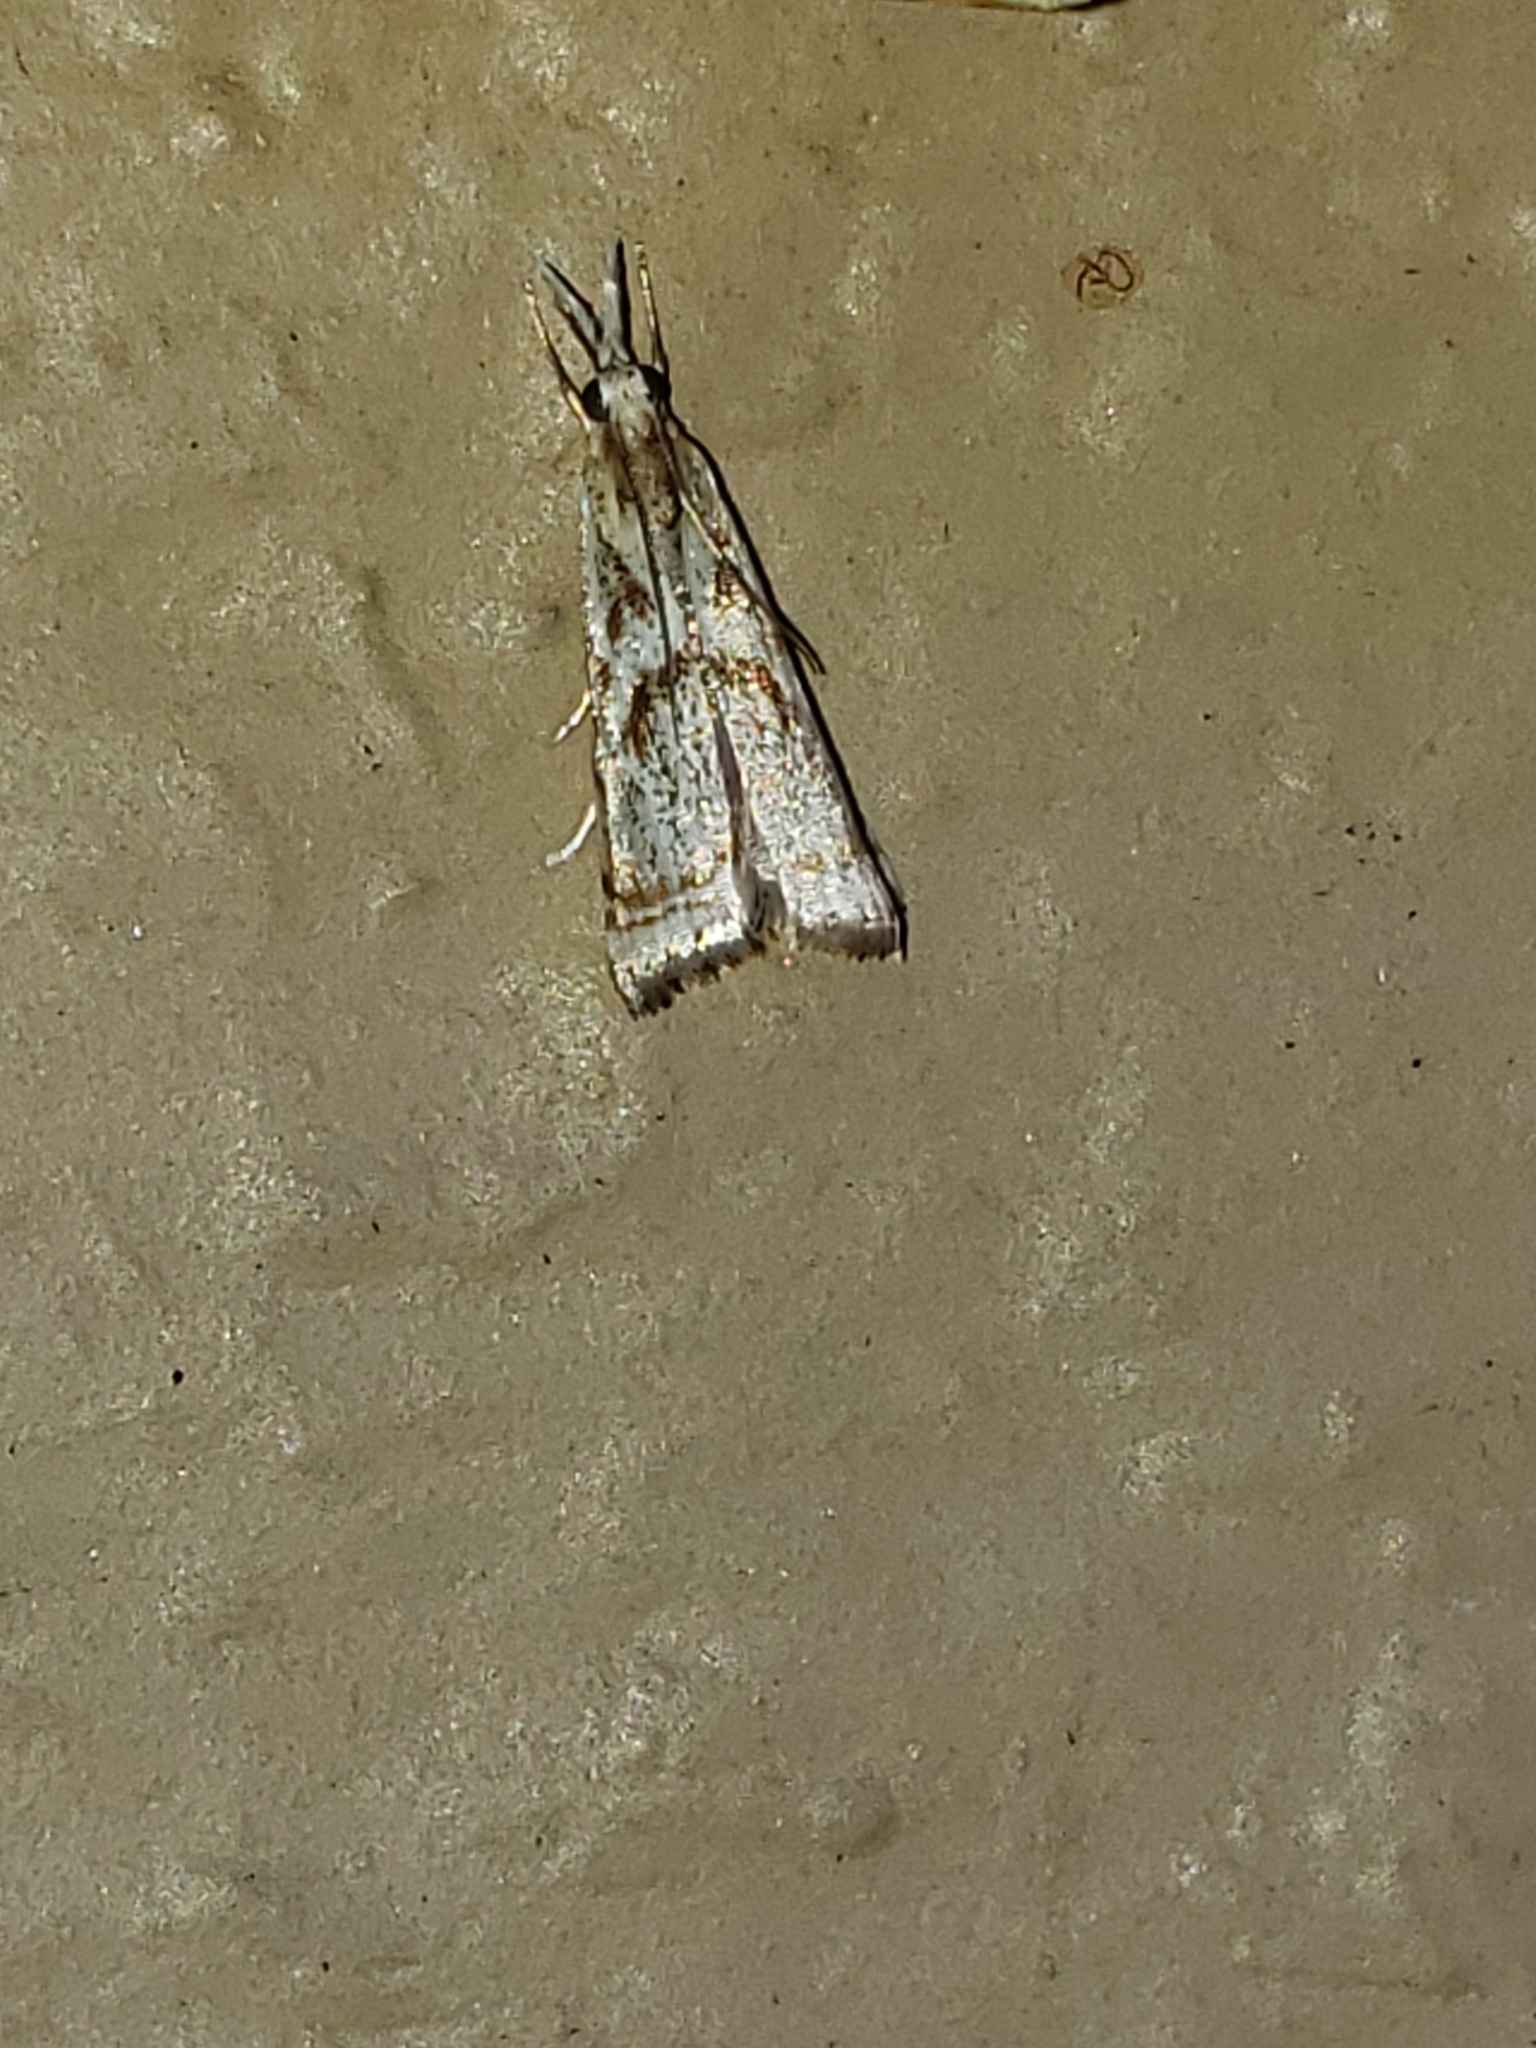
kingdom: Animalia
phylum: Arthropoda
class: Insecta
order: Lepidoptera
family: Crambidae
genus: Microcrambus
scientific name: Microcrambus elegans
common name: Elegant grass-veneer
